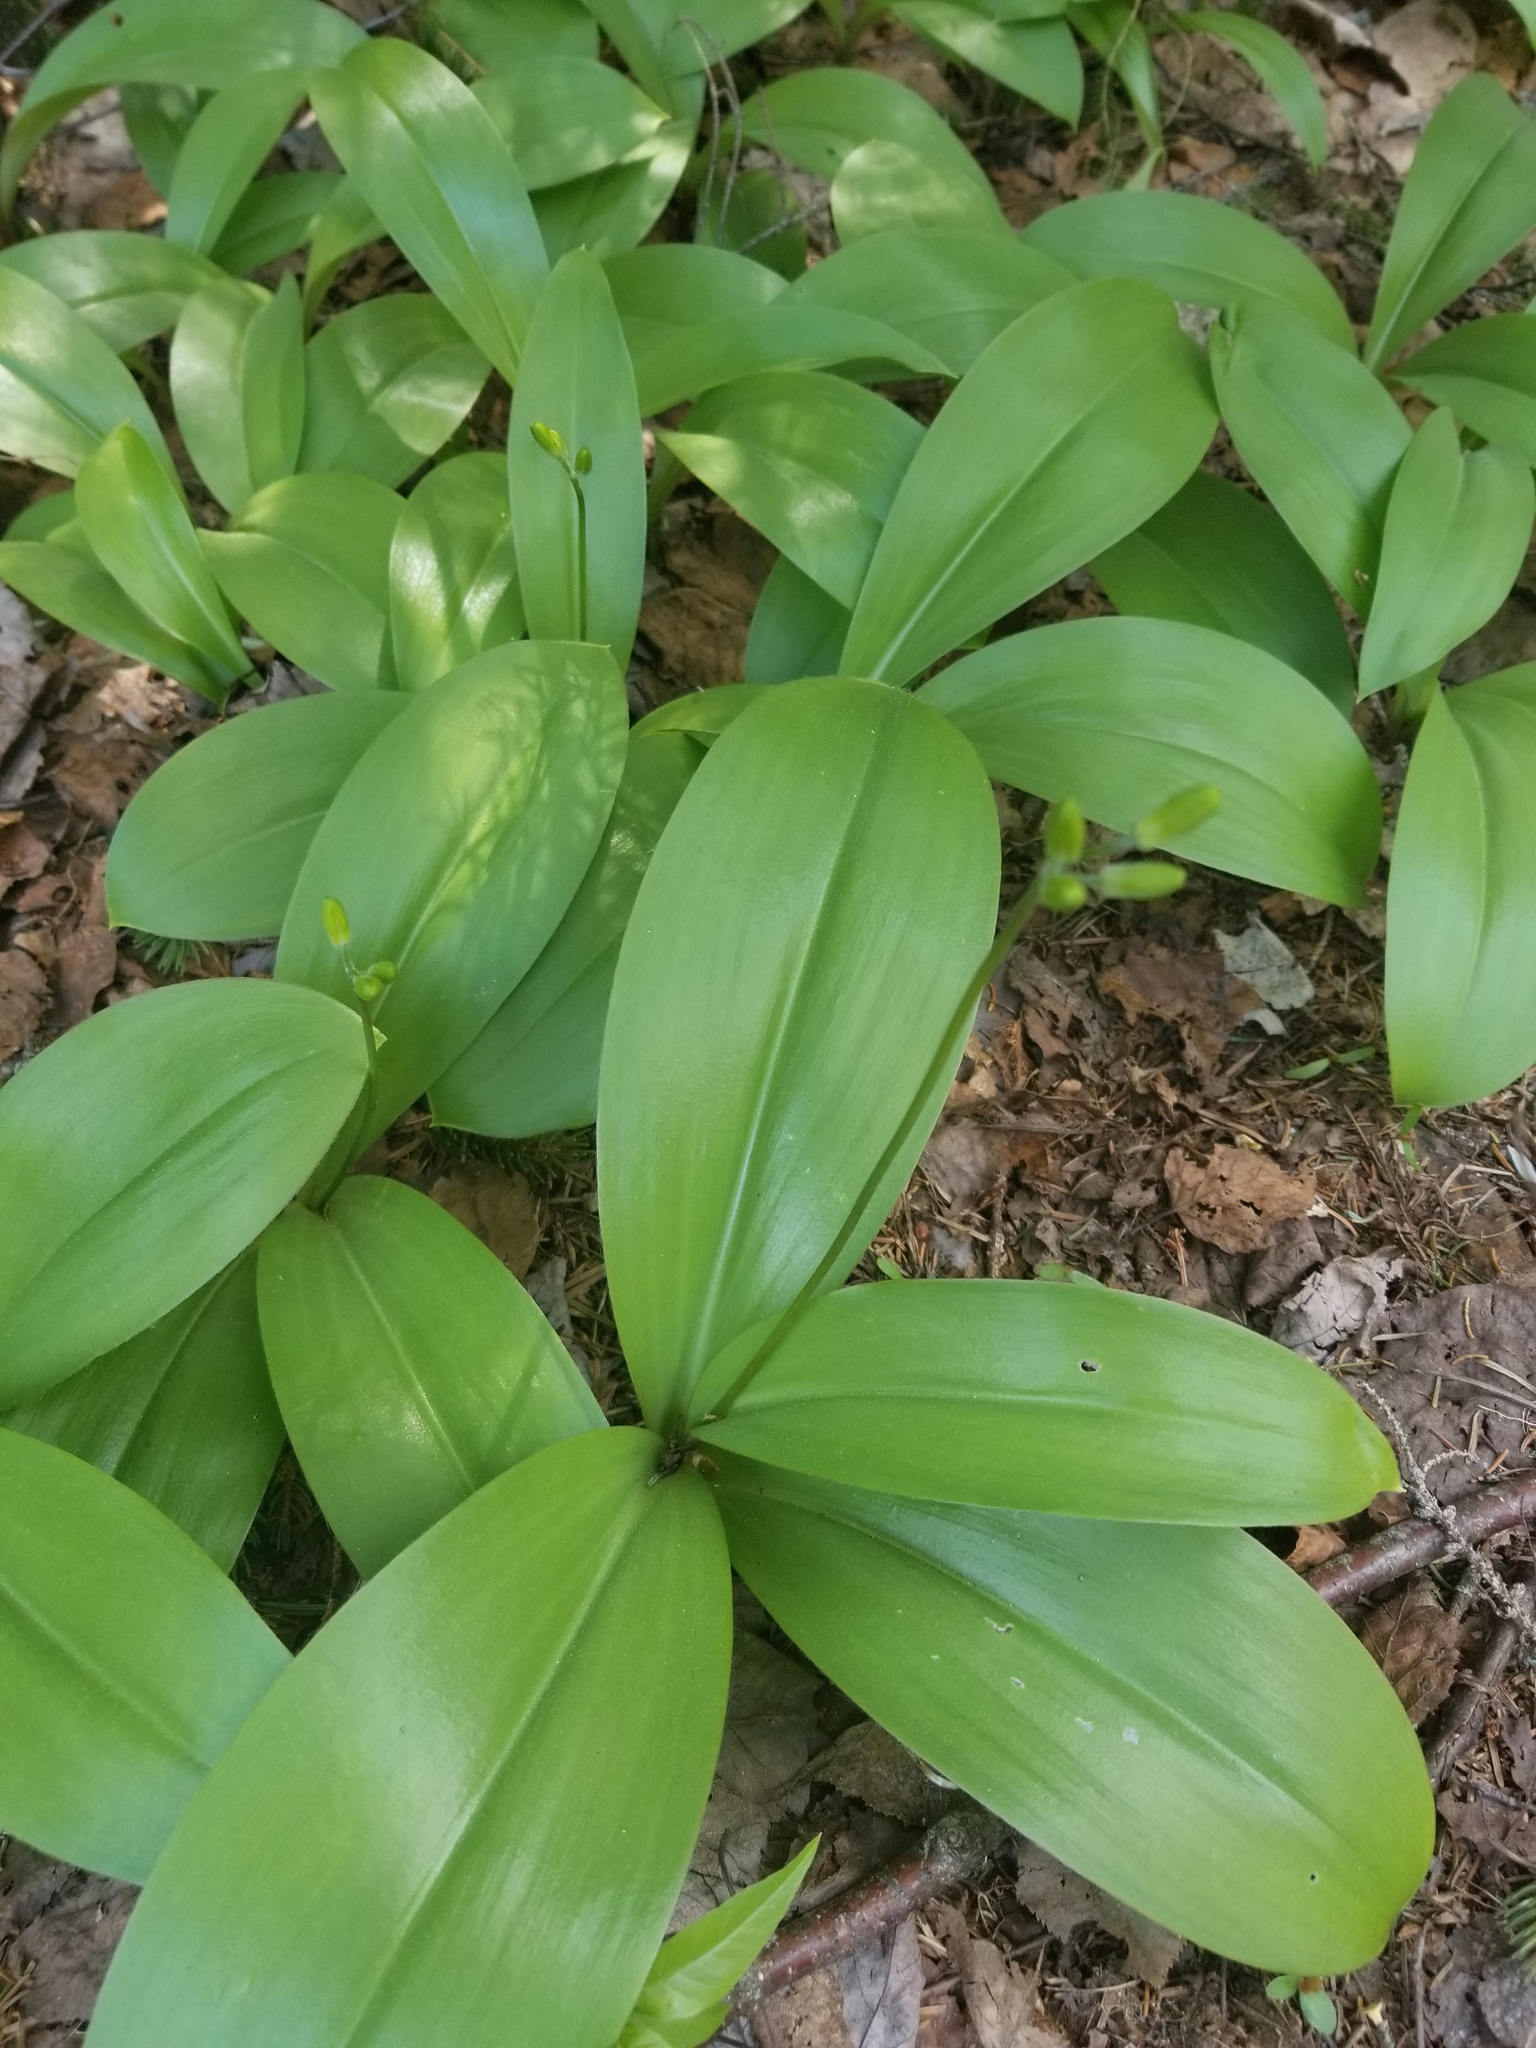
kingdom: Plantae
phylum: Tracheophyta
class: Liliopsida
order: Liliales
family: Liliaceae
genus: Clintonia
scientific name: Clintonia borealis
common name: Yellow clintonia
